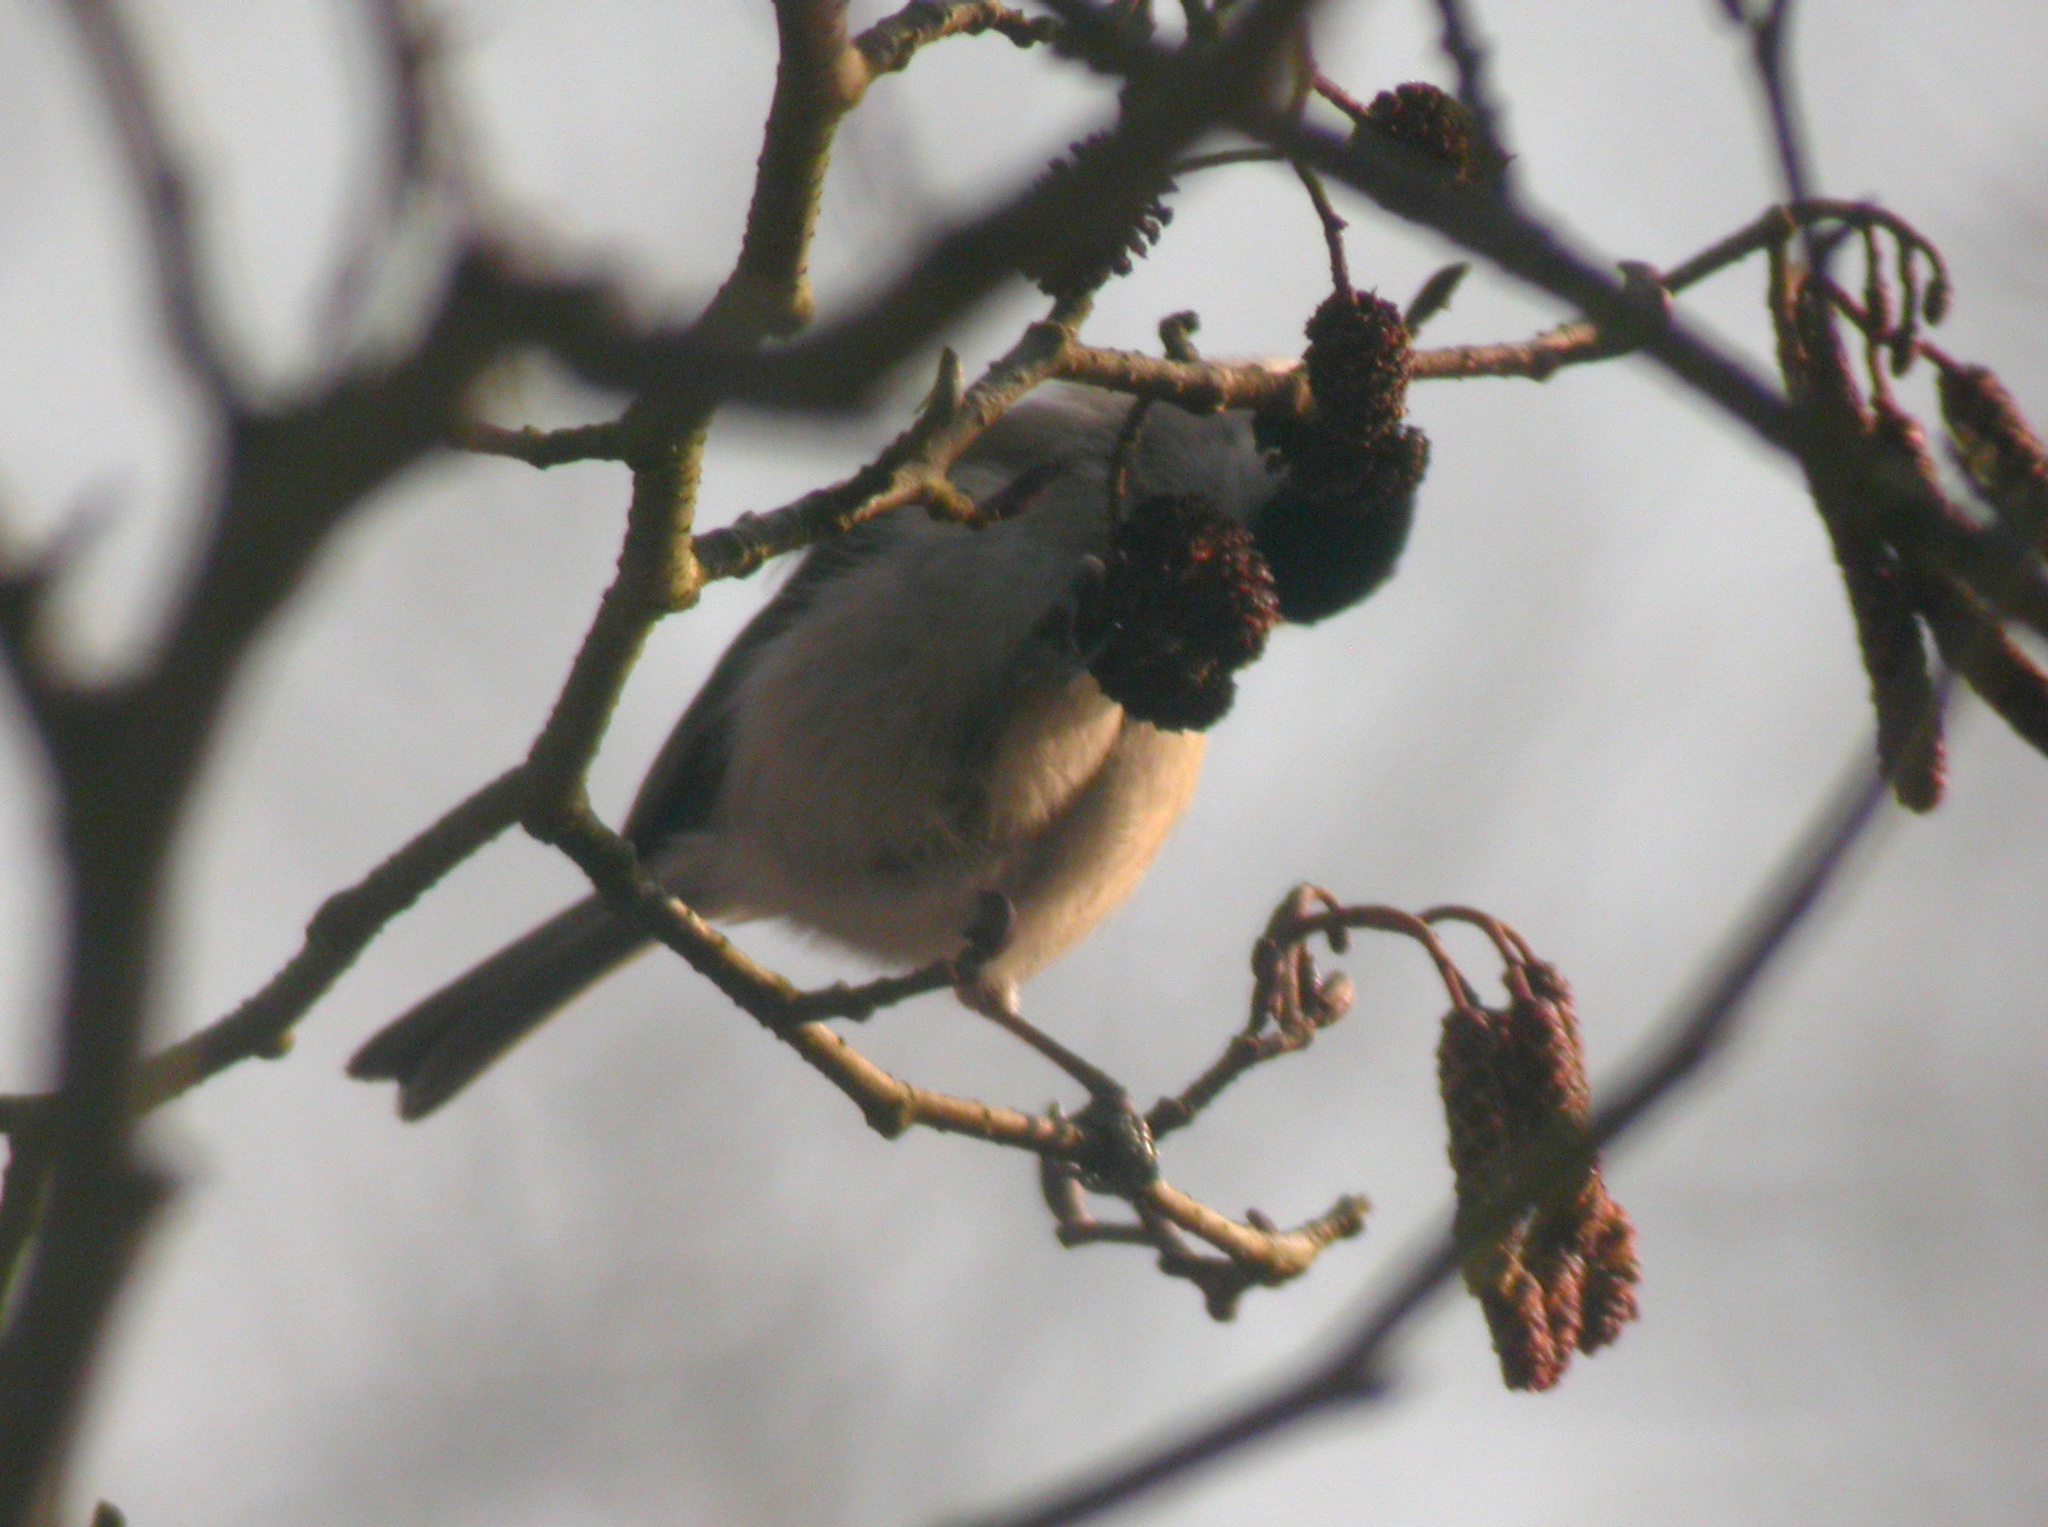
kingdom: Animalia
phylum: Chordata
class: Aves
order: Passeriformes
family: Paridae
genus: Poecile
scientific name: Poecile montanus
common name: Willow tit
